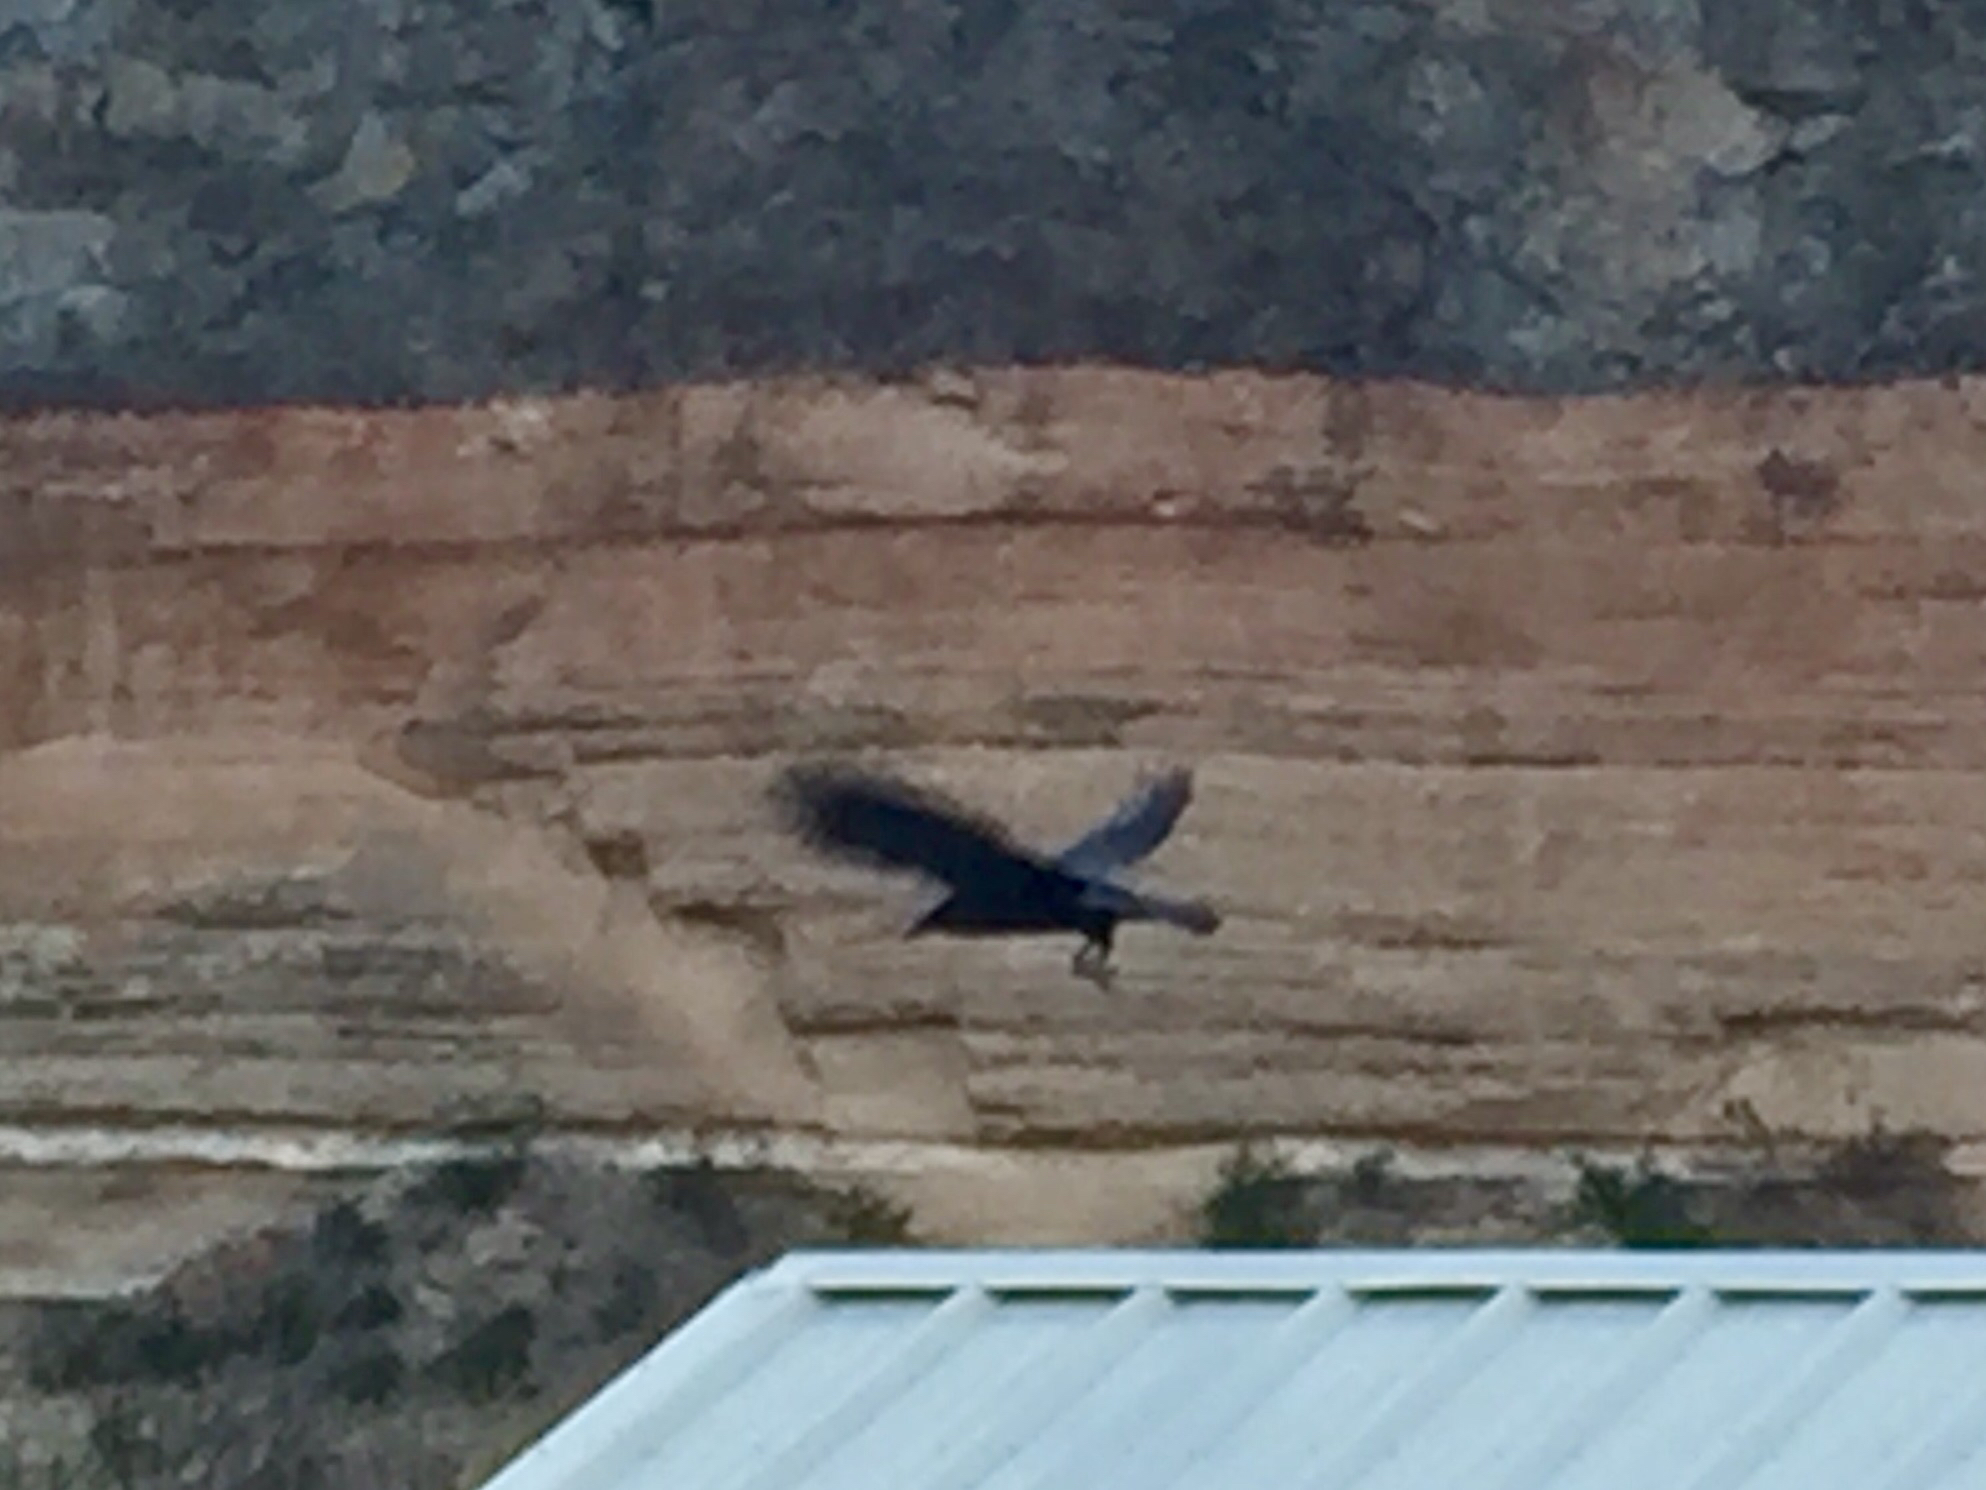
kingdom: Animalia
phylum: Chordata
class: Aves
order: Passeriformes
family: Corvidae
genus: Corvus
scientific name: Corvus corax
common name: Common raven
